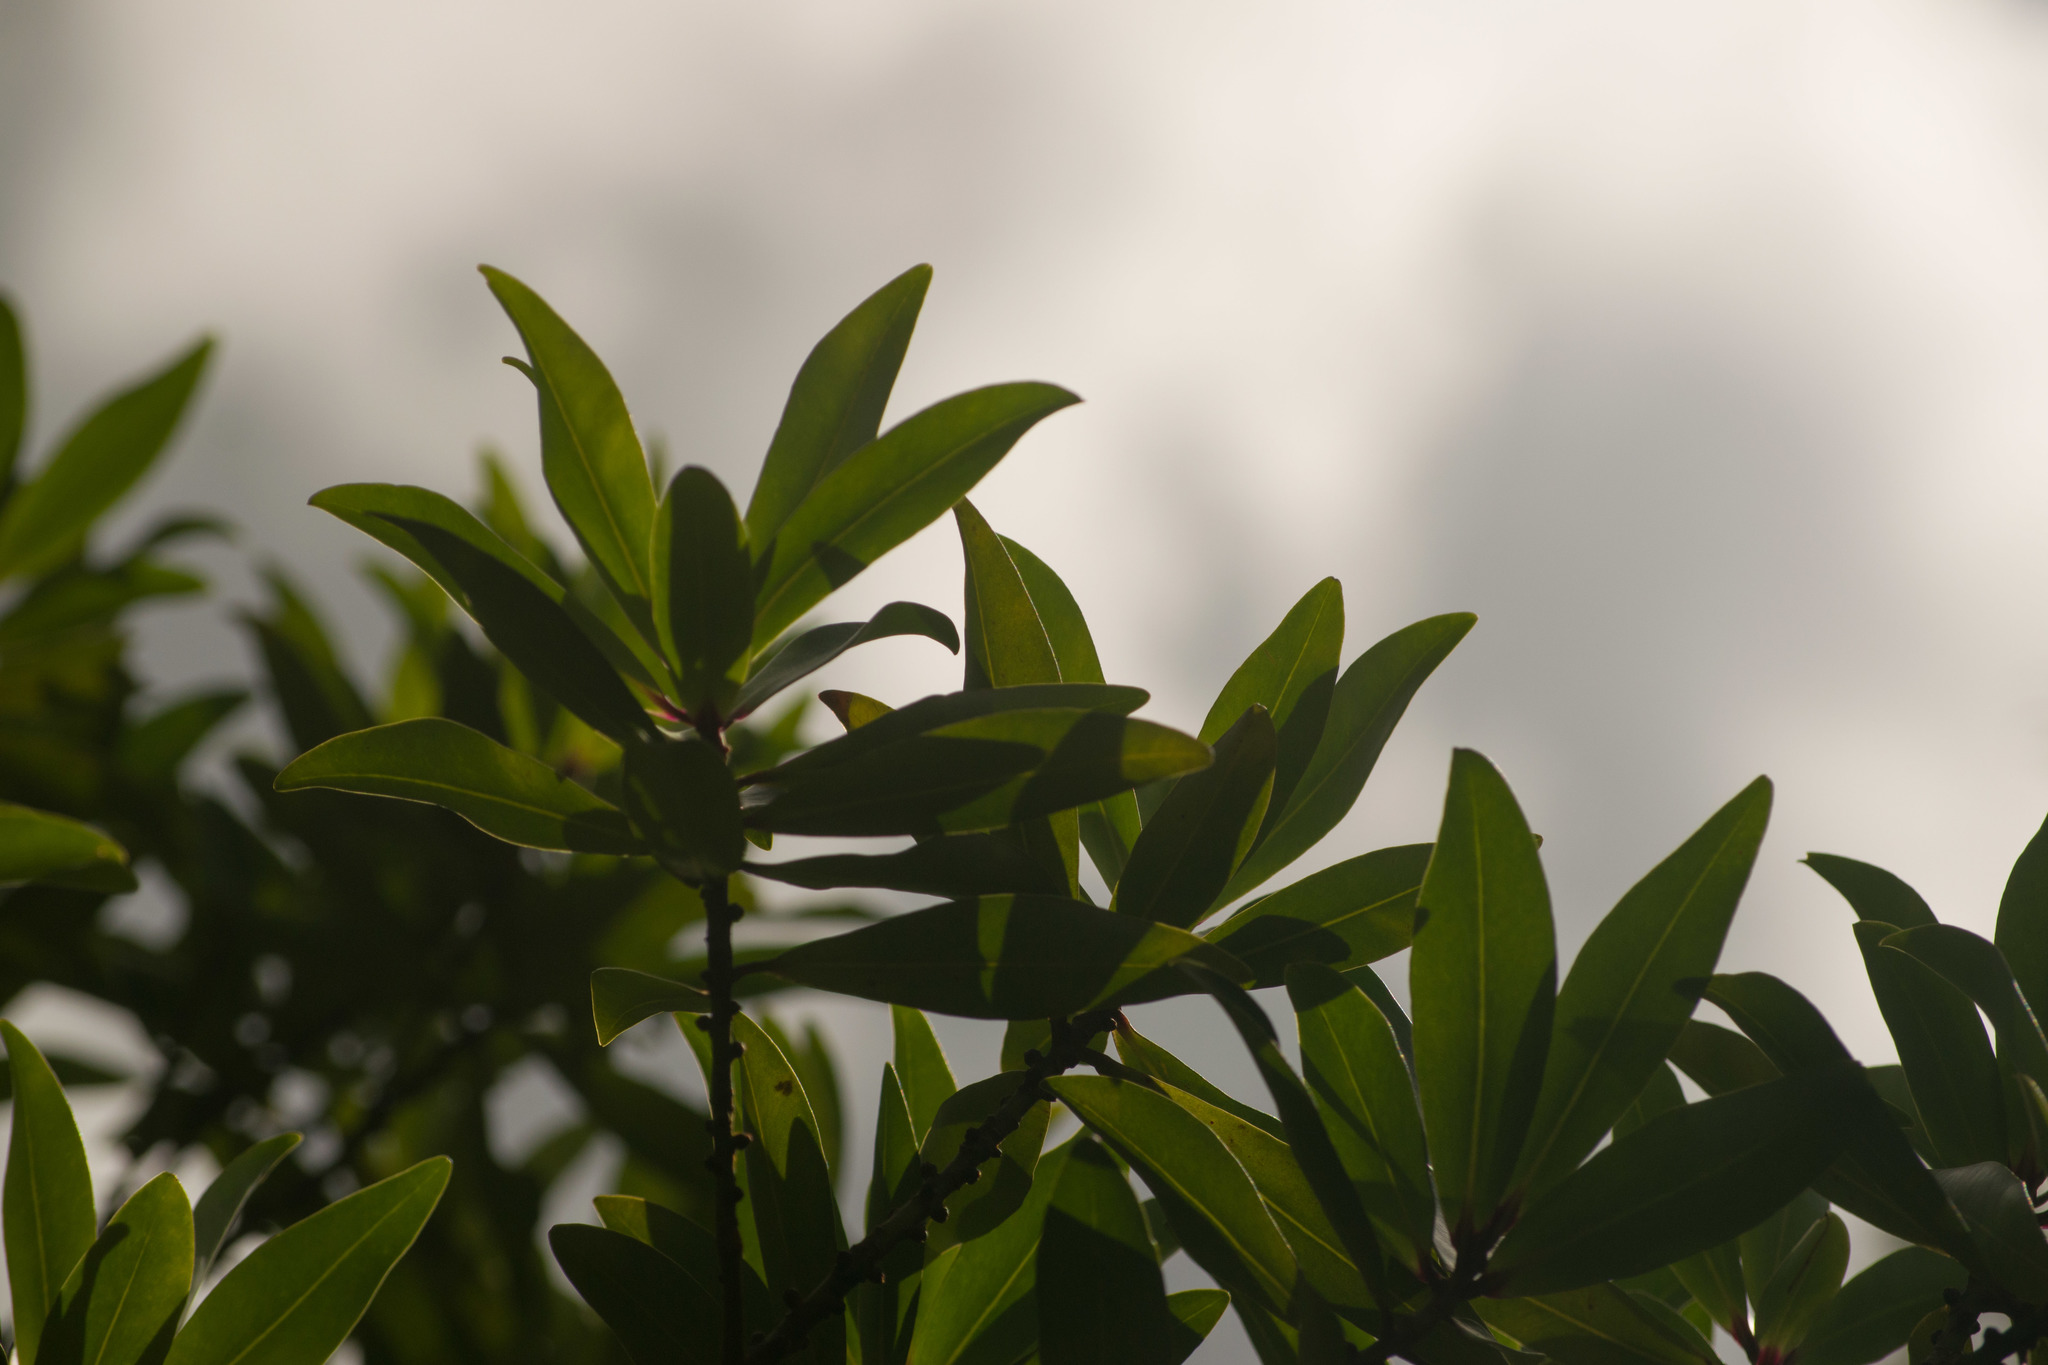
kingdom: Plantae
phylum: Tracheophyta
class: Magnoliopsida
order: Ericales
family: Primulaceae
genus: Myrsine
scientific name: Myrsine lessertiana
